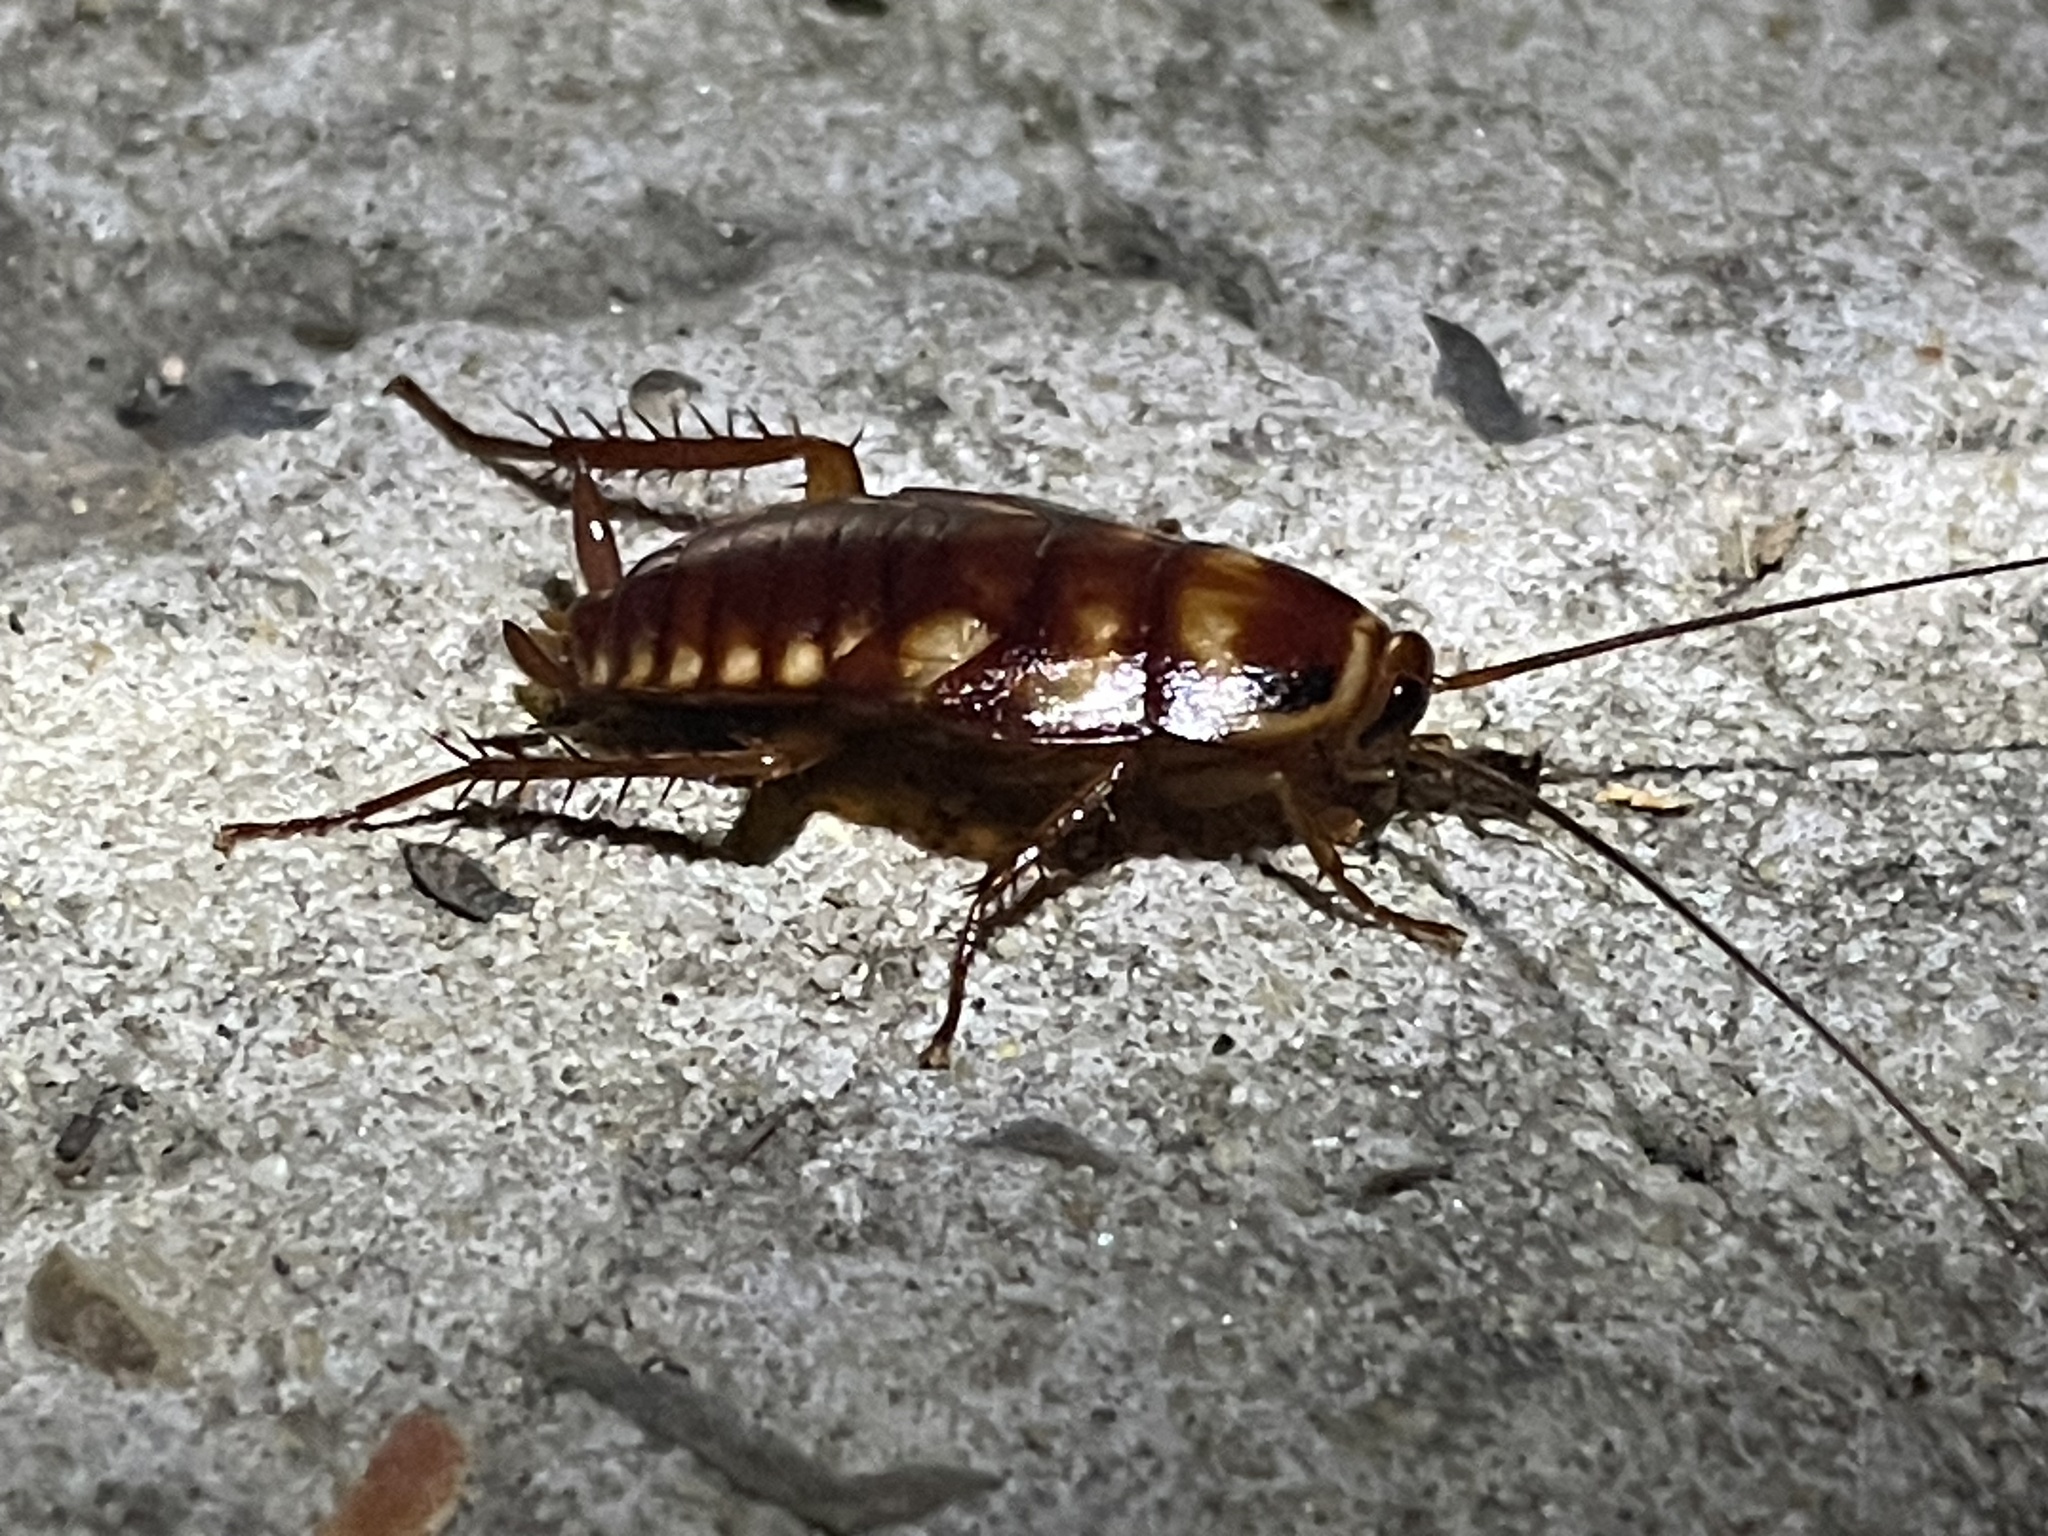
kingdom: Animalia
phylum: Arthropoda
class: Insecta
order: Blattodea
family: Blattidae
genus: Periplaneta
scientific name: Periplaneta australasiae
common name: Australian cockroach
